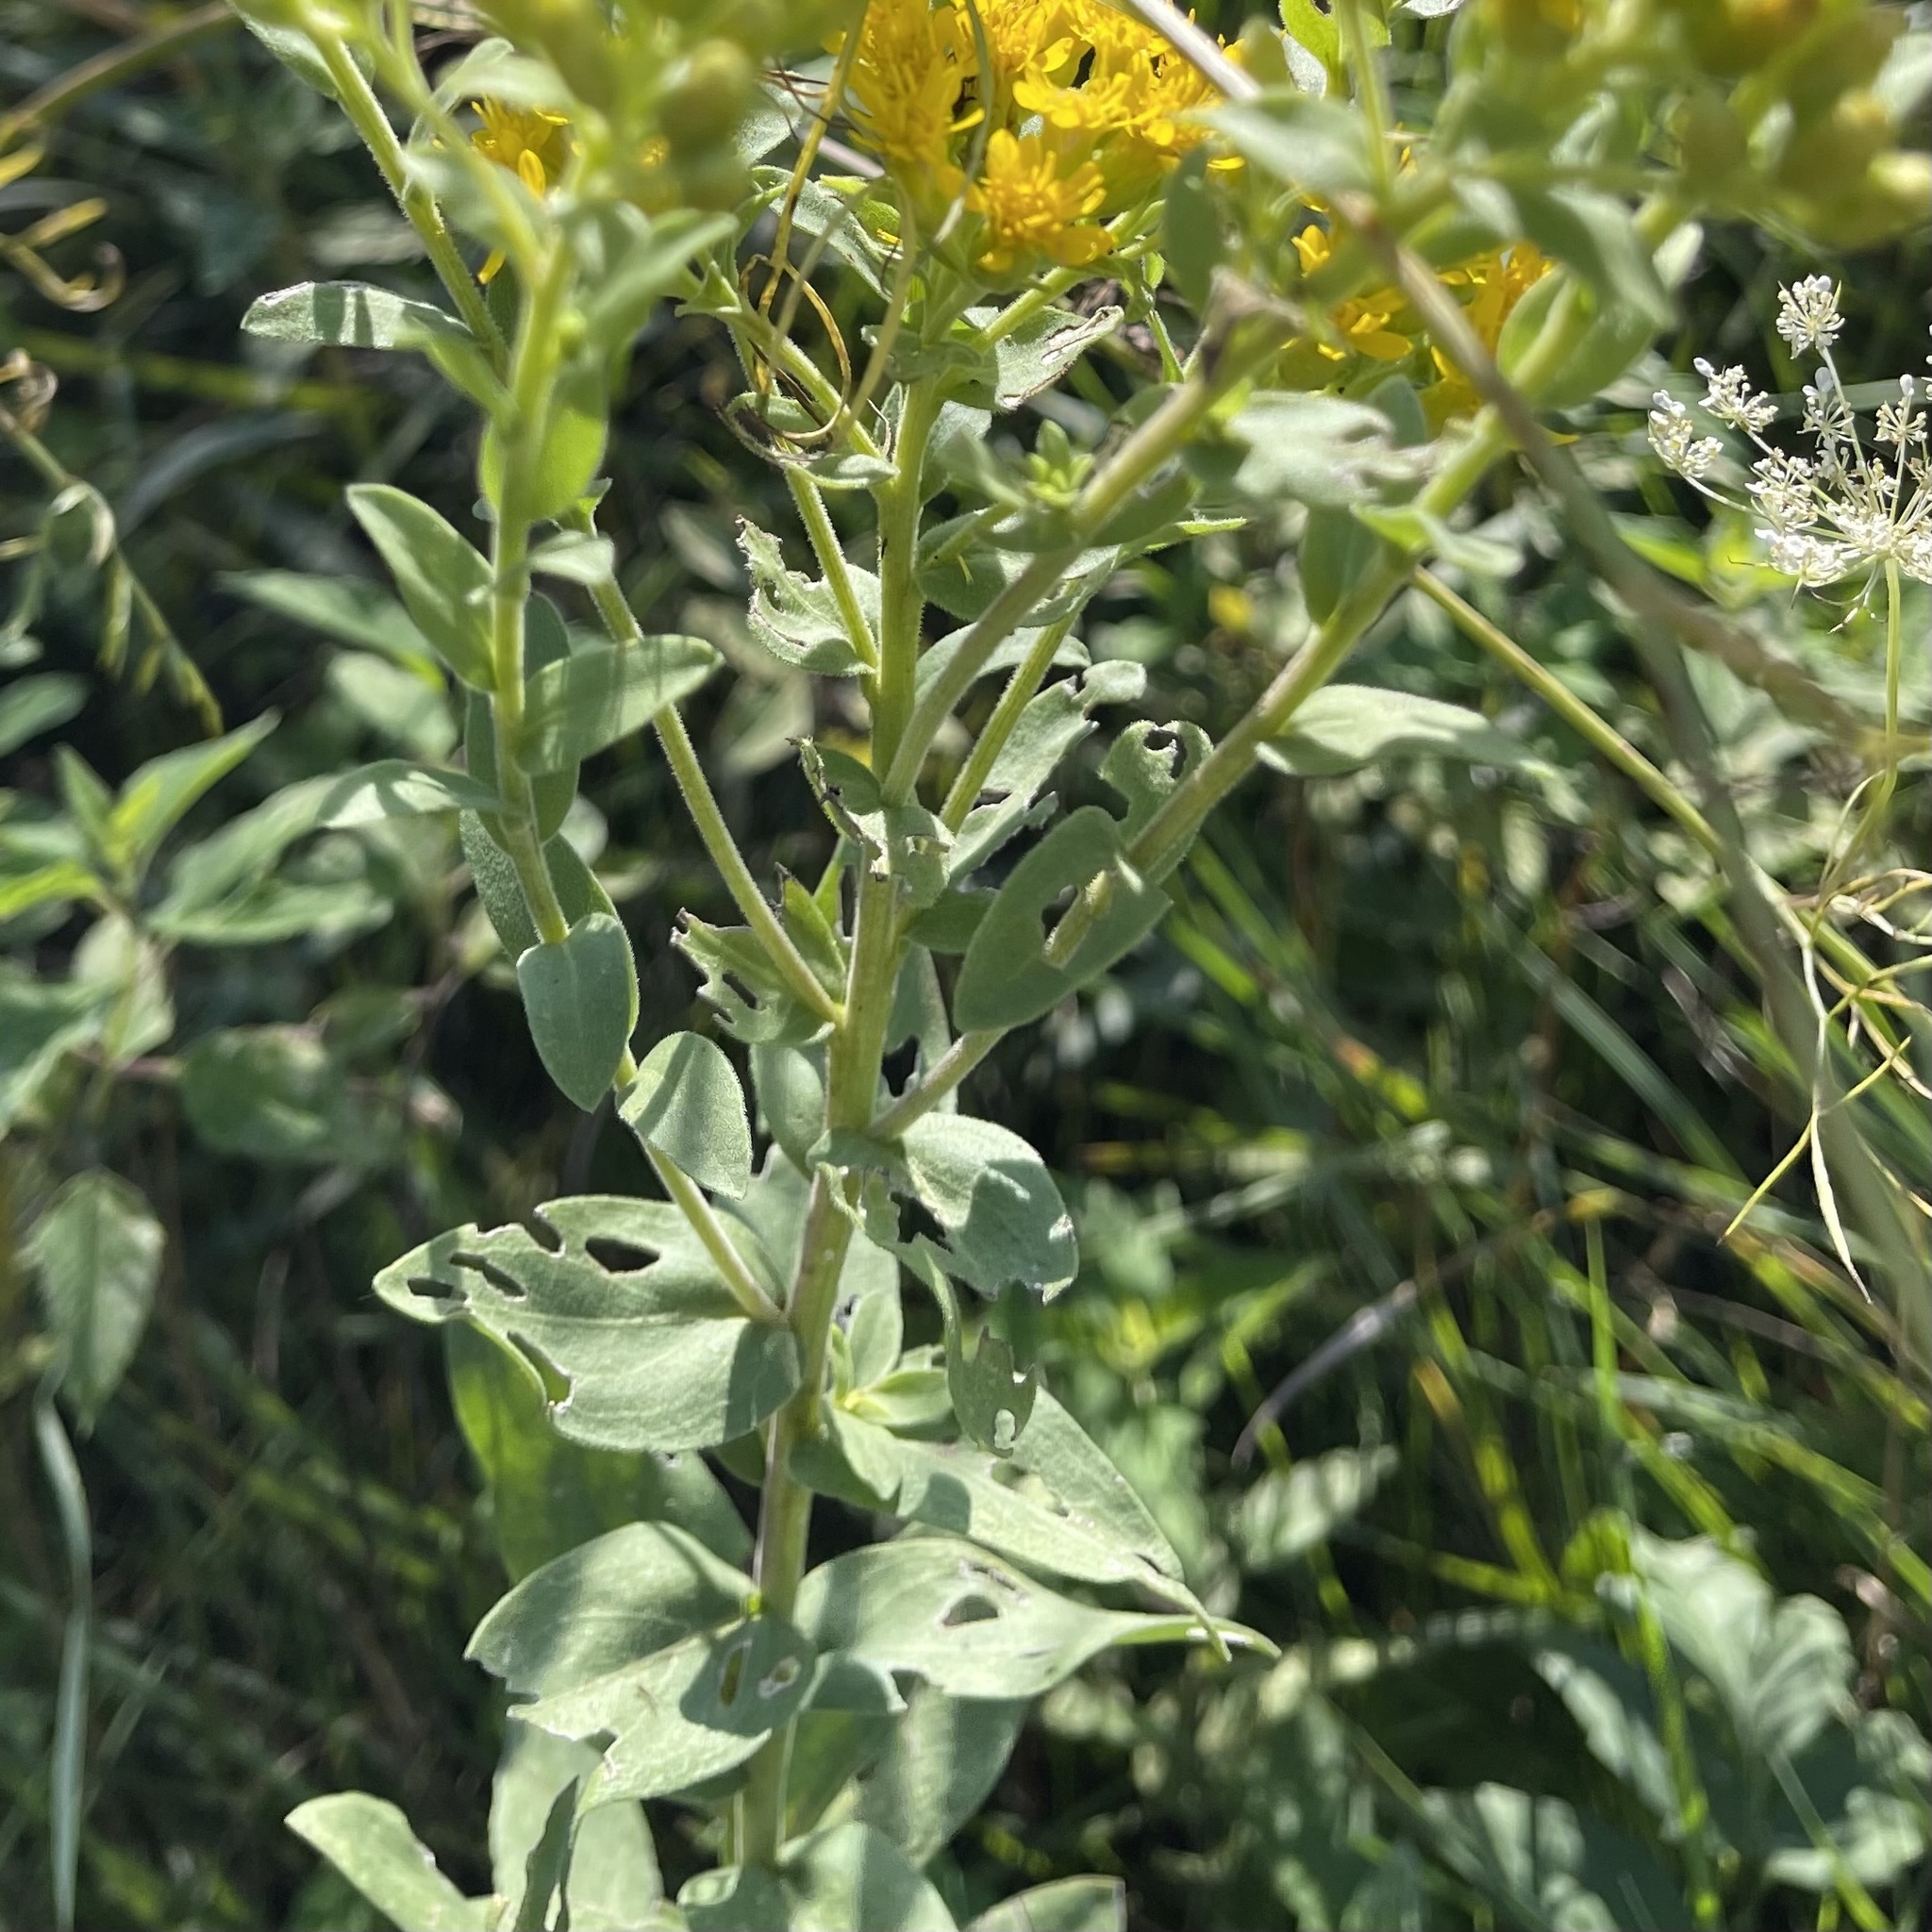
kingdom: Plantae
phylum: Tracheophyta
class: Magnoliopsida
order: Asterales
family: Asteraceae
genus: Solidago
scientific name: Solidago rigida
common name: Rigid goldenrod
